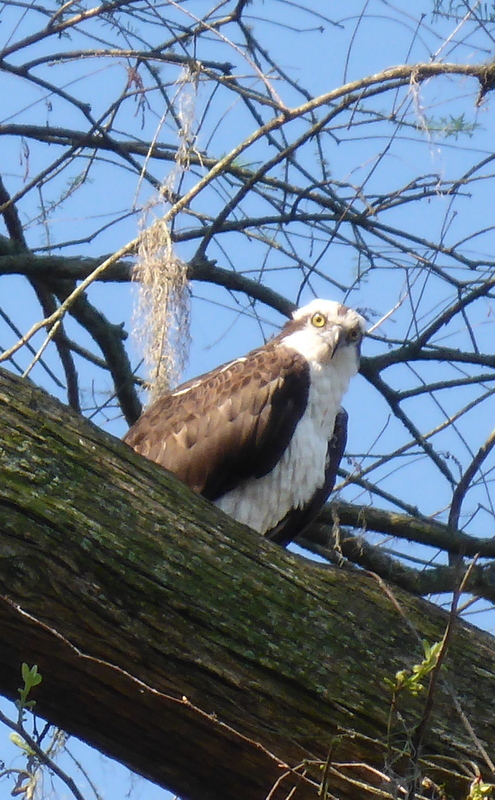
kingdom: Animalia
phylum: Chordata
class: Aves
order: Accipitriformes
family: Pandionidae
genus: Pandion
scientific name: Pandion haliaetus
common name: Osprey
